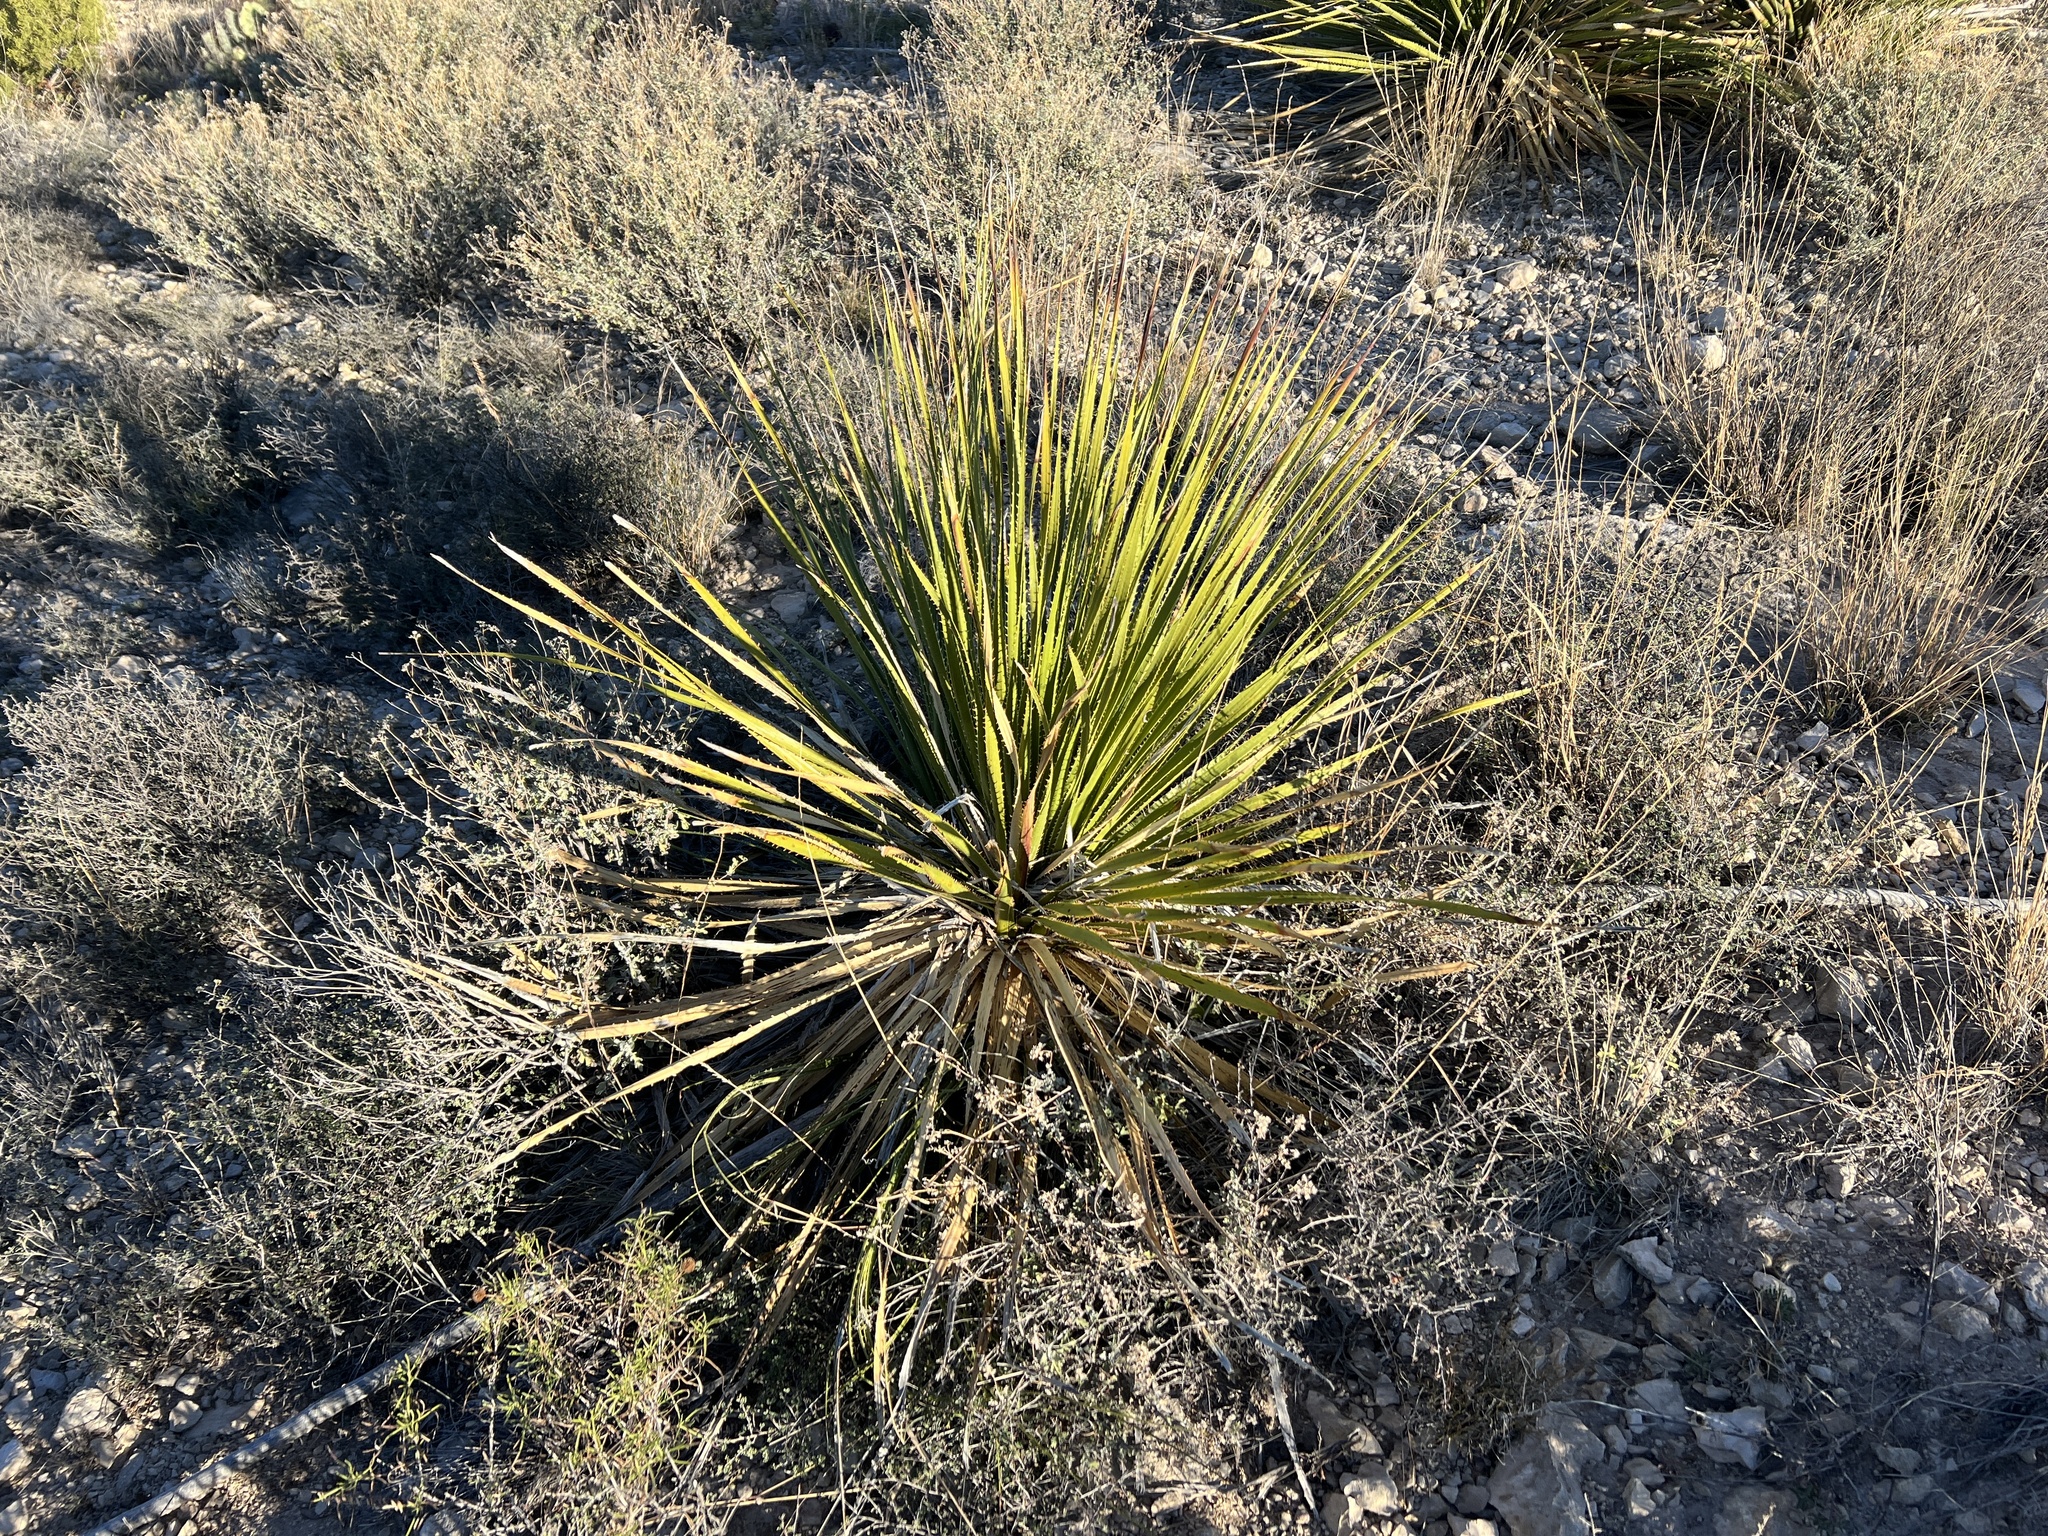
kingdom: Plantae
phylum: Tracheophyta
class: Liliopsida
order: Asparagales
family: Asparagaceae
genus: Dasylirion
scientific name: Dasylirion texanum
